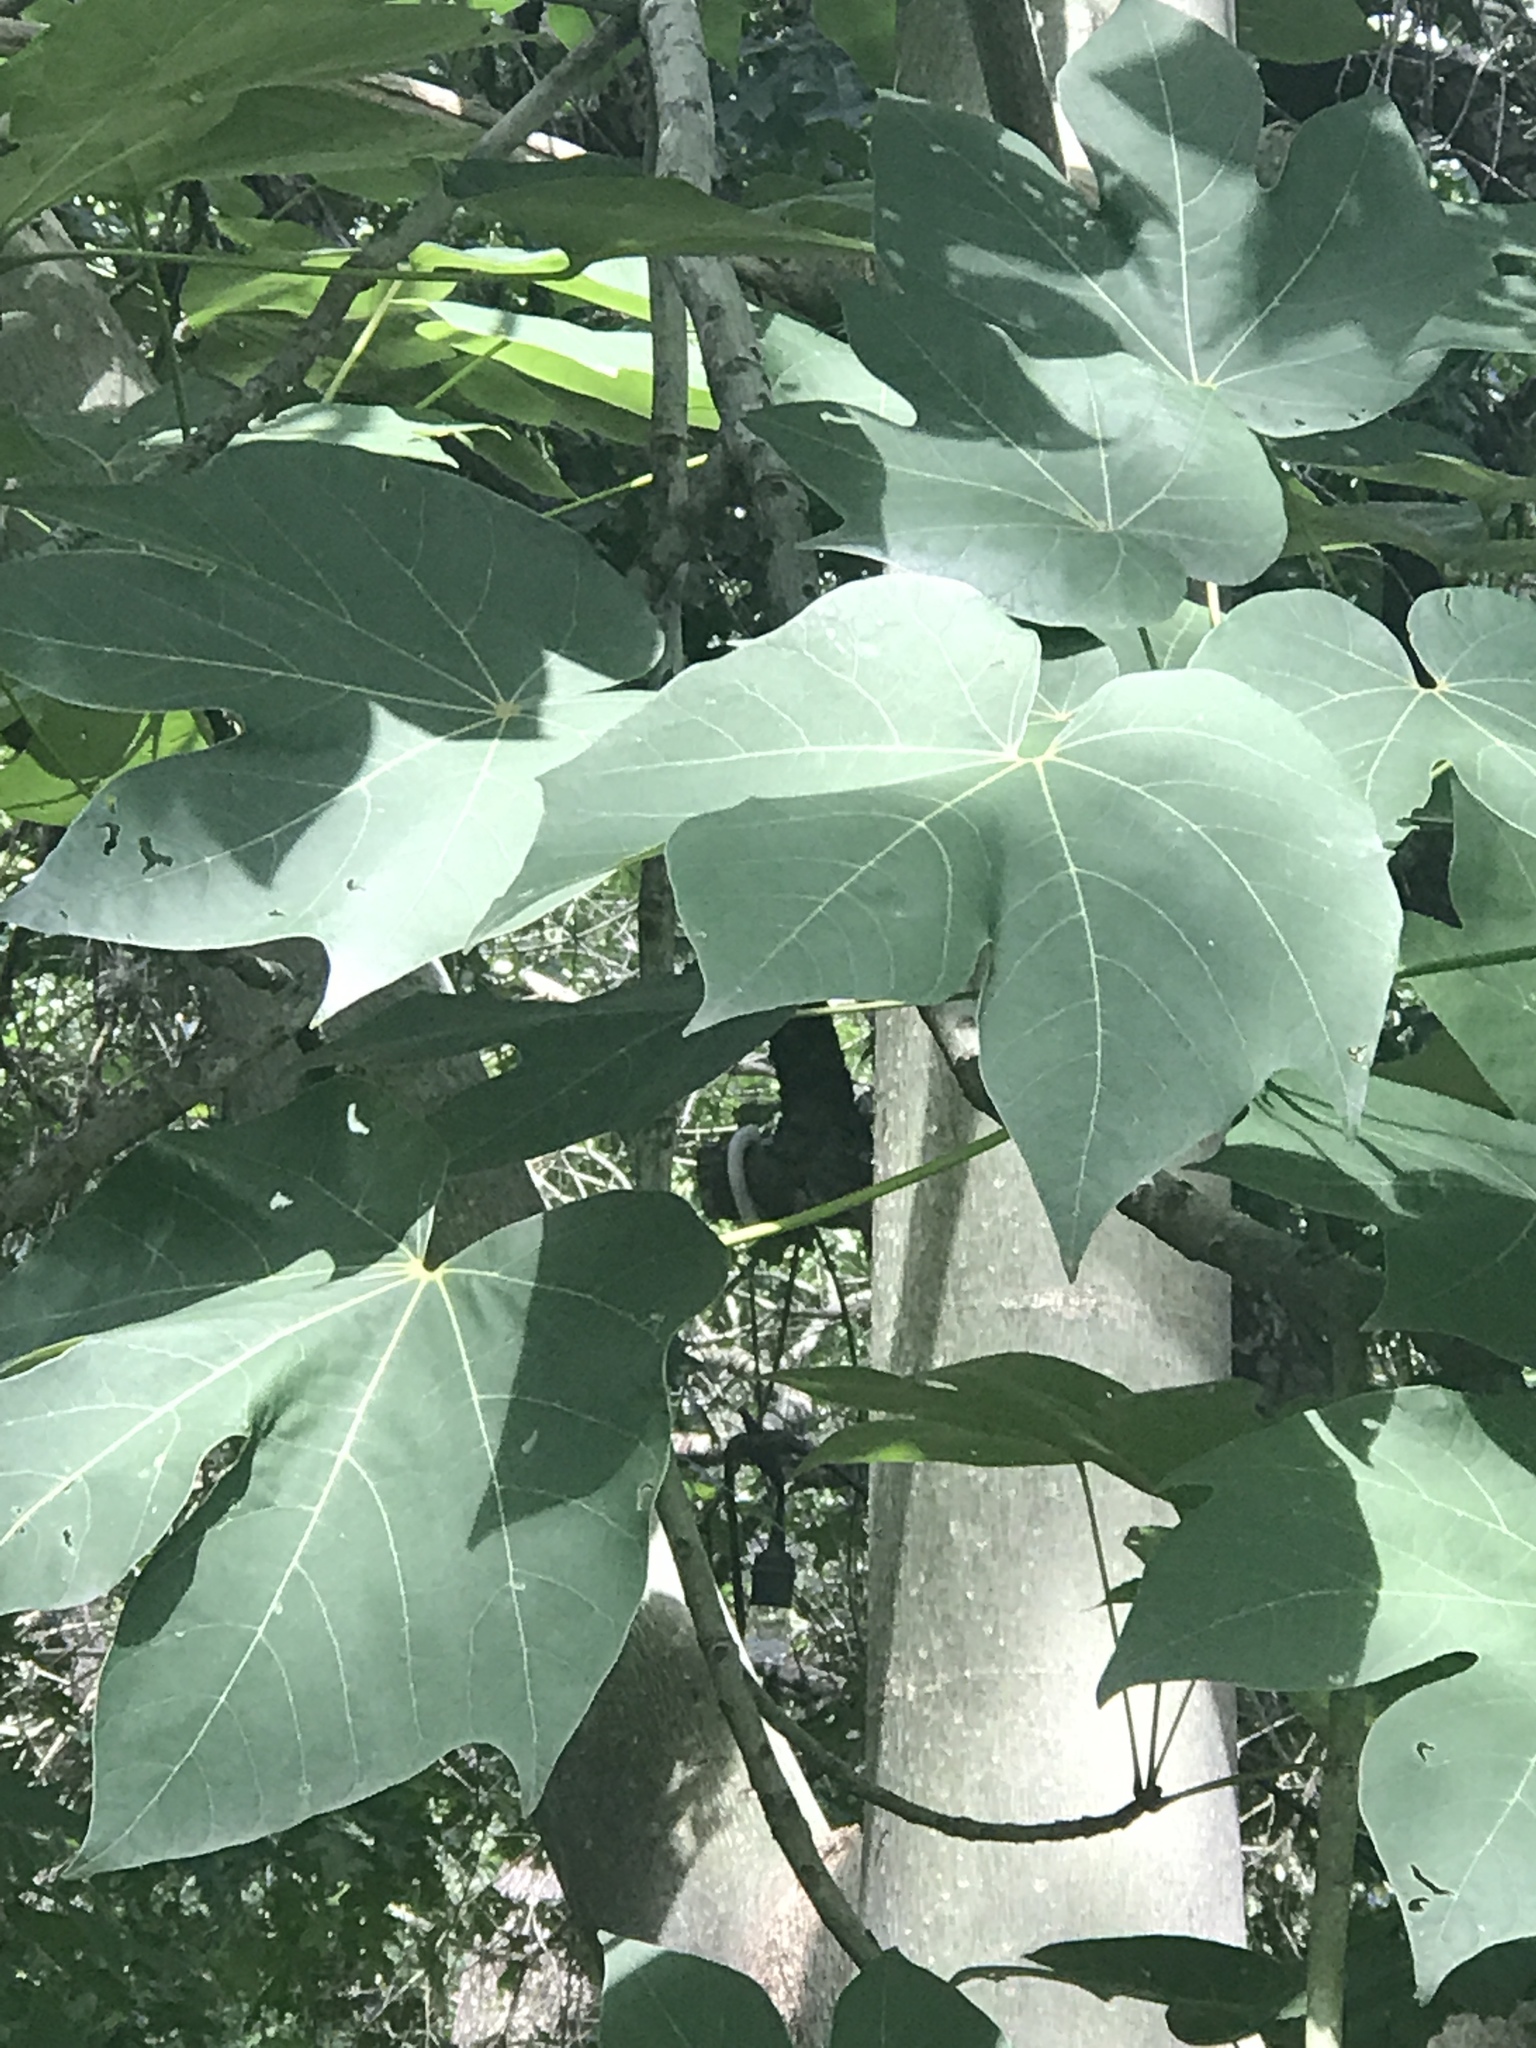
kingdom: Plantae
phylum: Tracheophyta
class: Magnoliopsida
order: Malvales
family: Malvaceae
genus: Firmiana
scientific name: Firmiana simplex
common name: Chinese parasoltree
